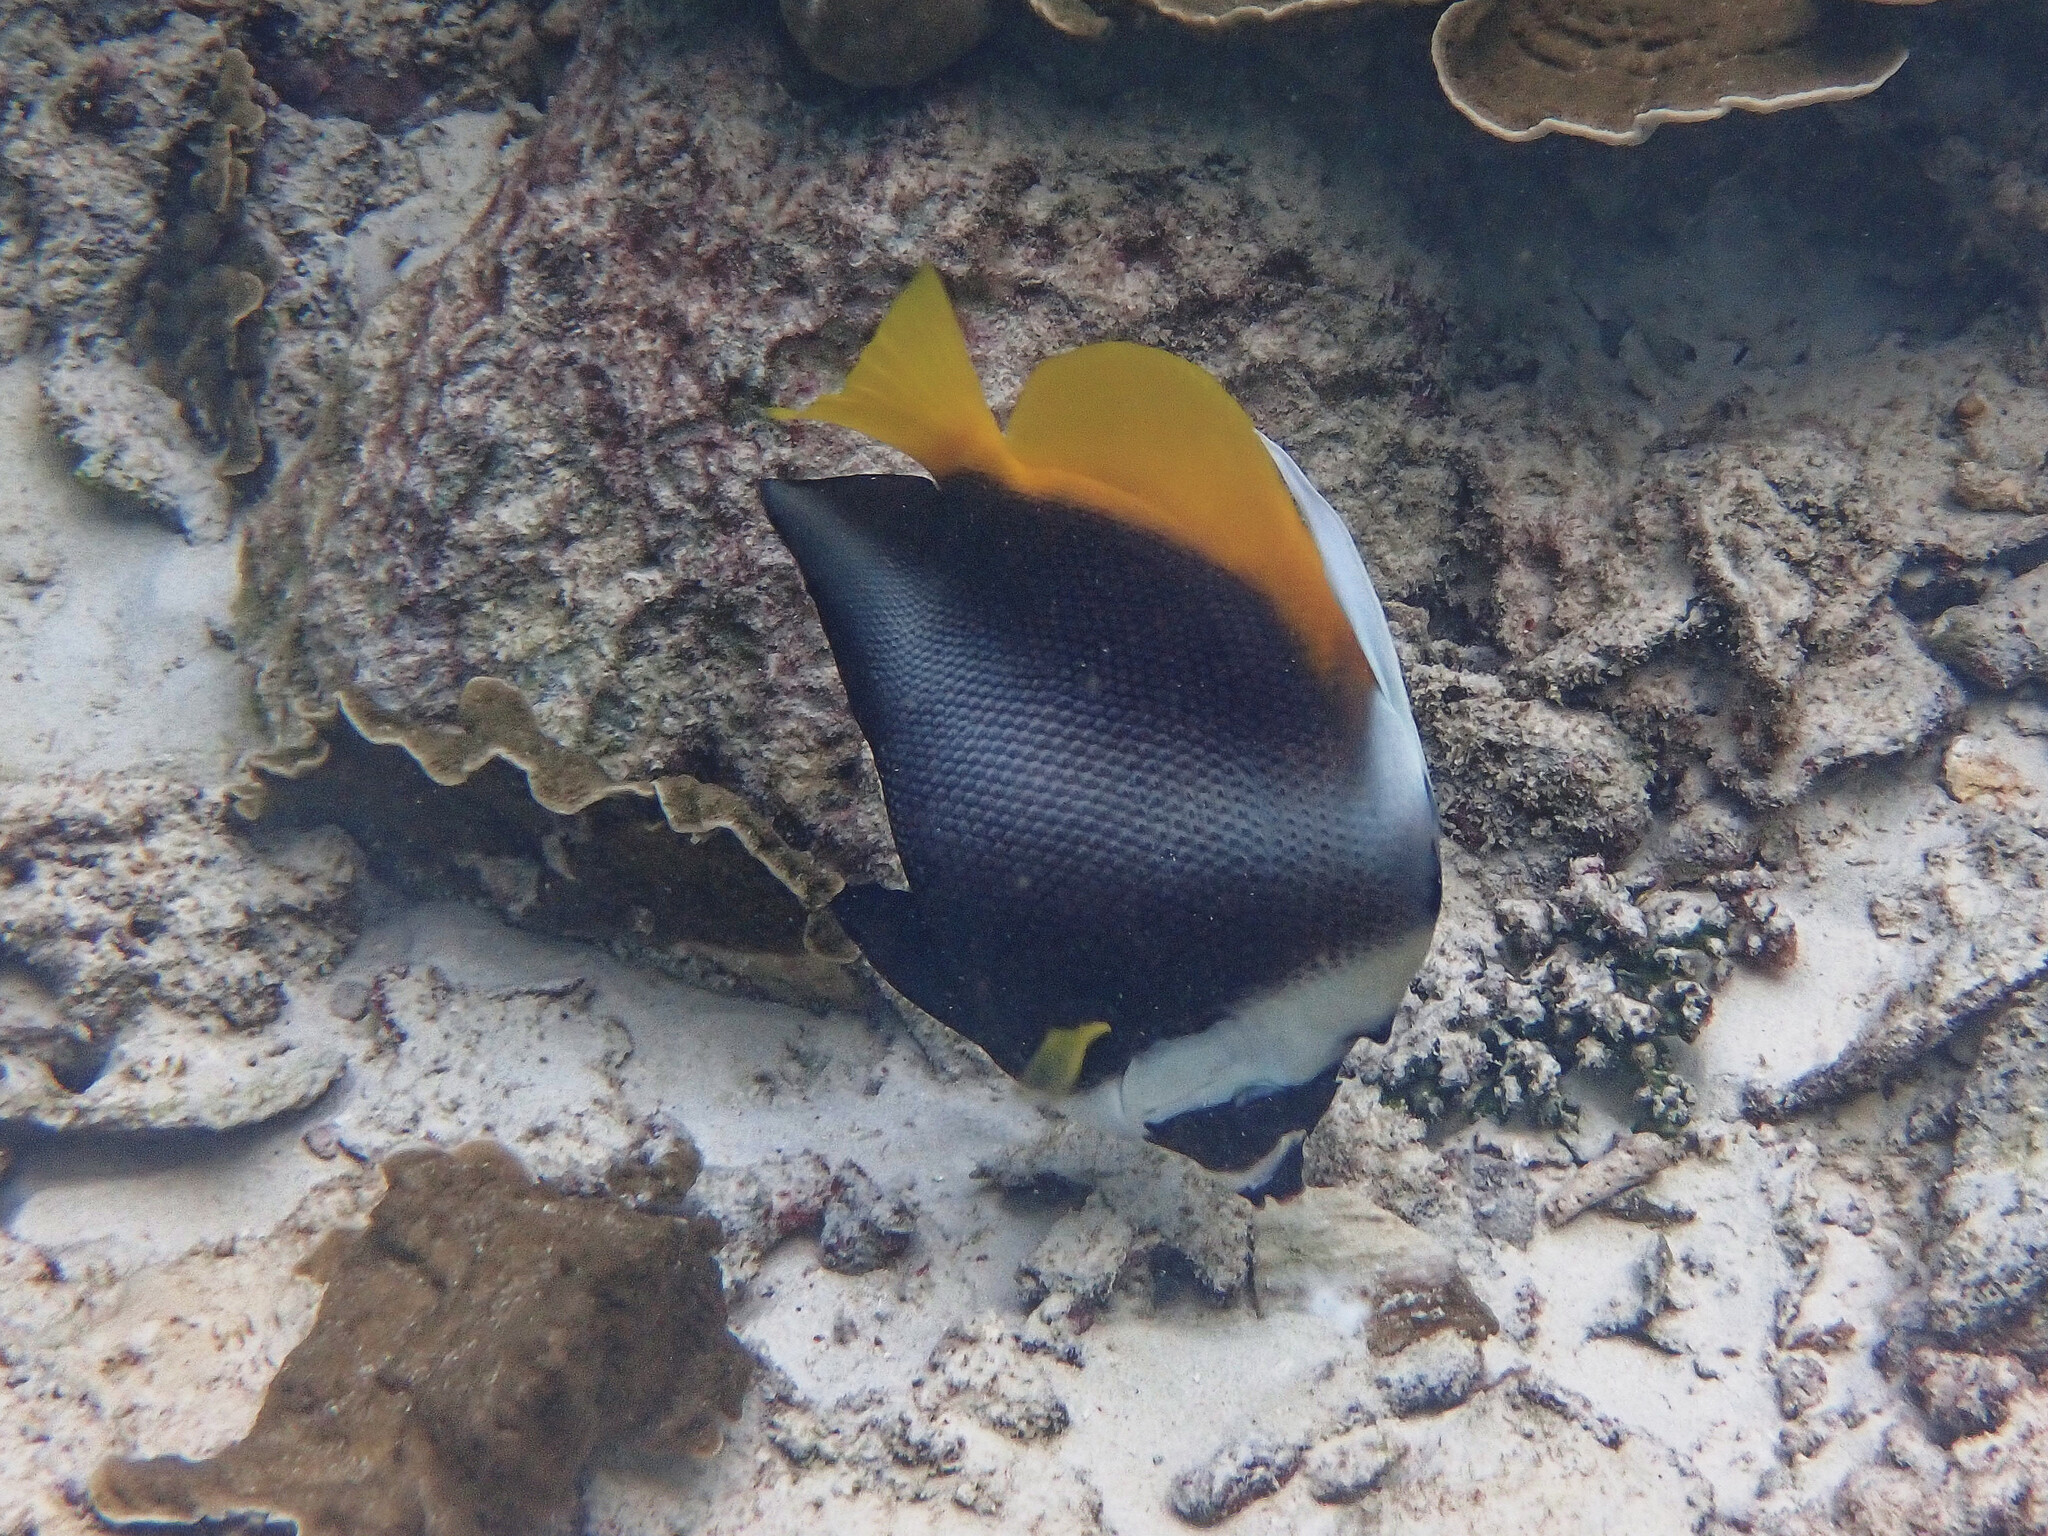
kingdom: Animalia
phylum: Chordata
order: Perciformes
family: Chaetodontidae
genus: Heniochus
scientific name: Heniochus singularius
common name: Singular bannerfish
